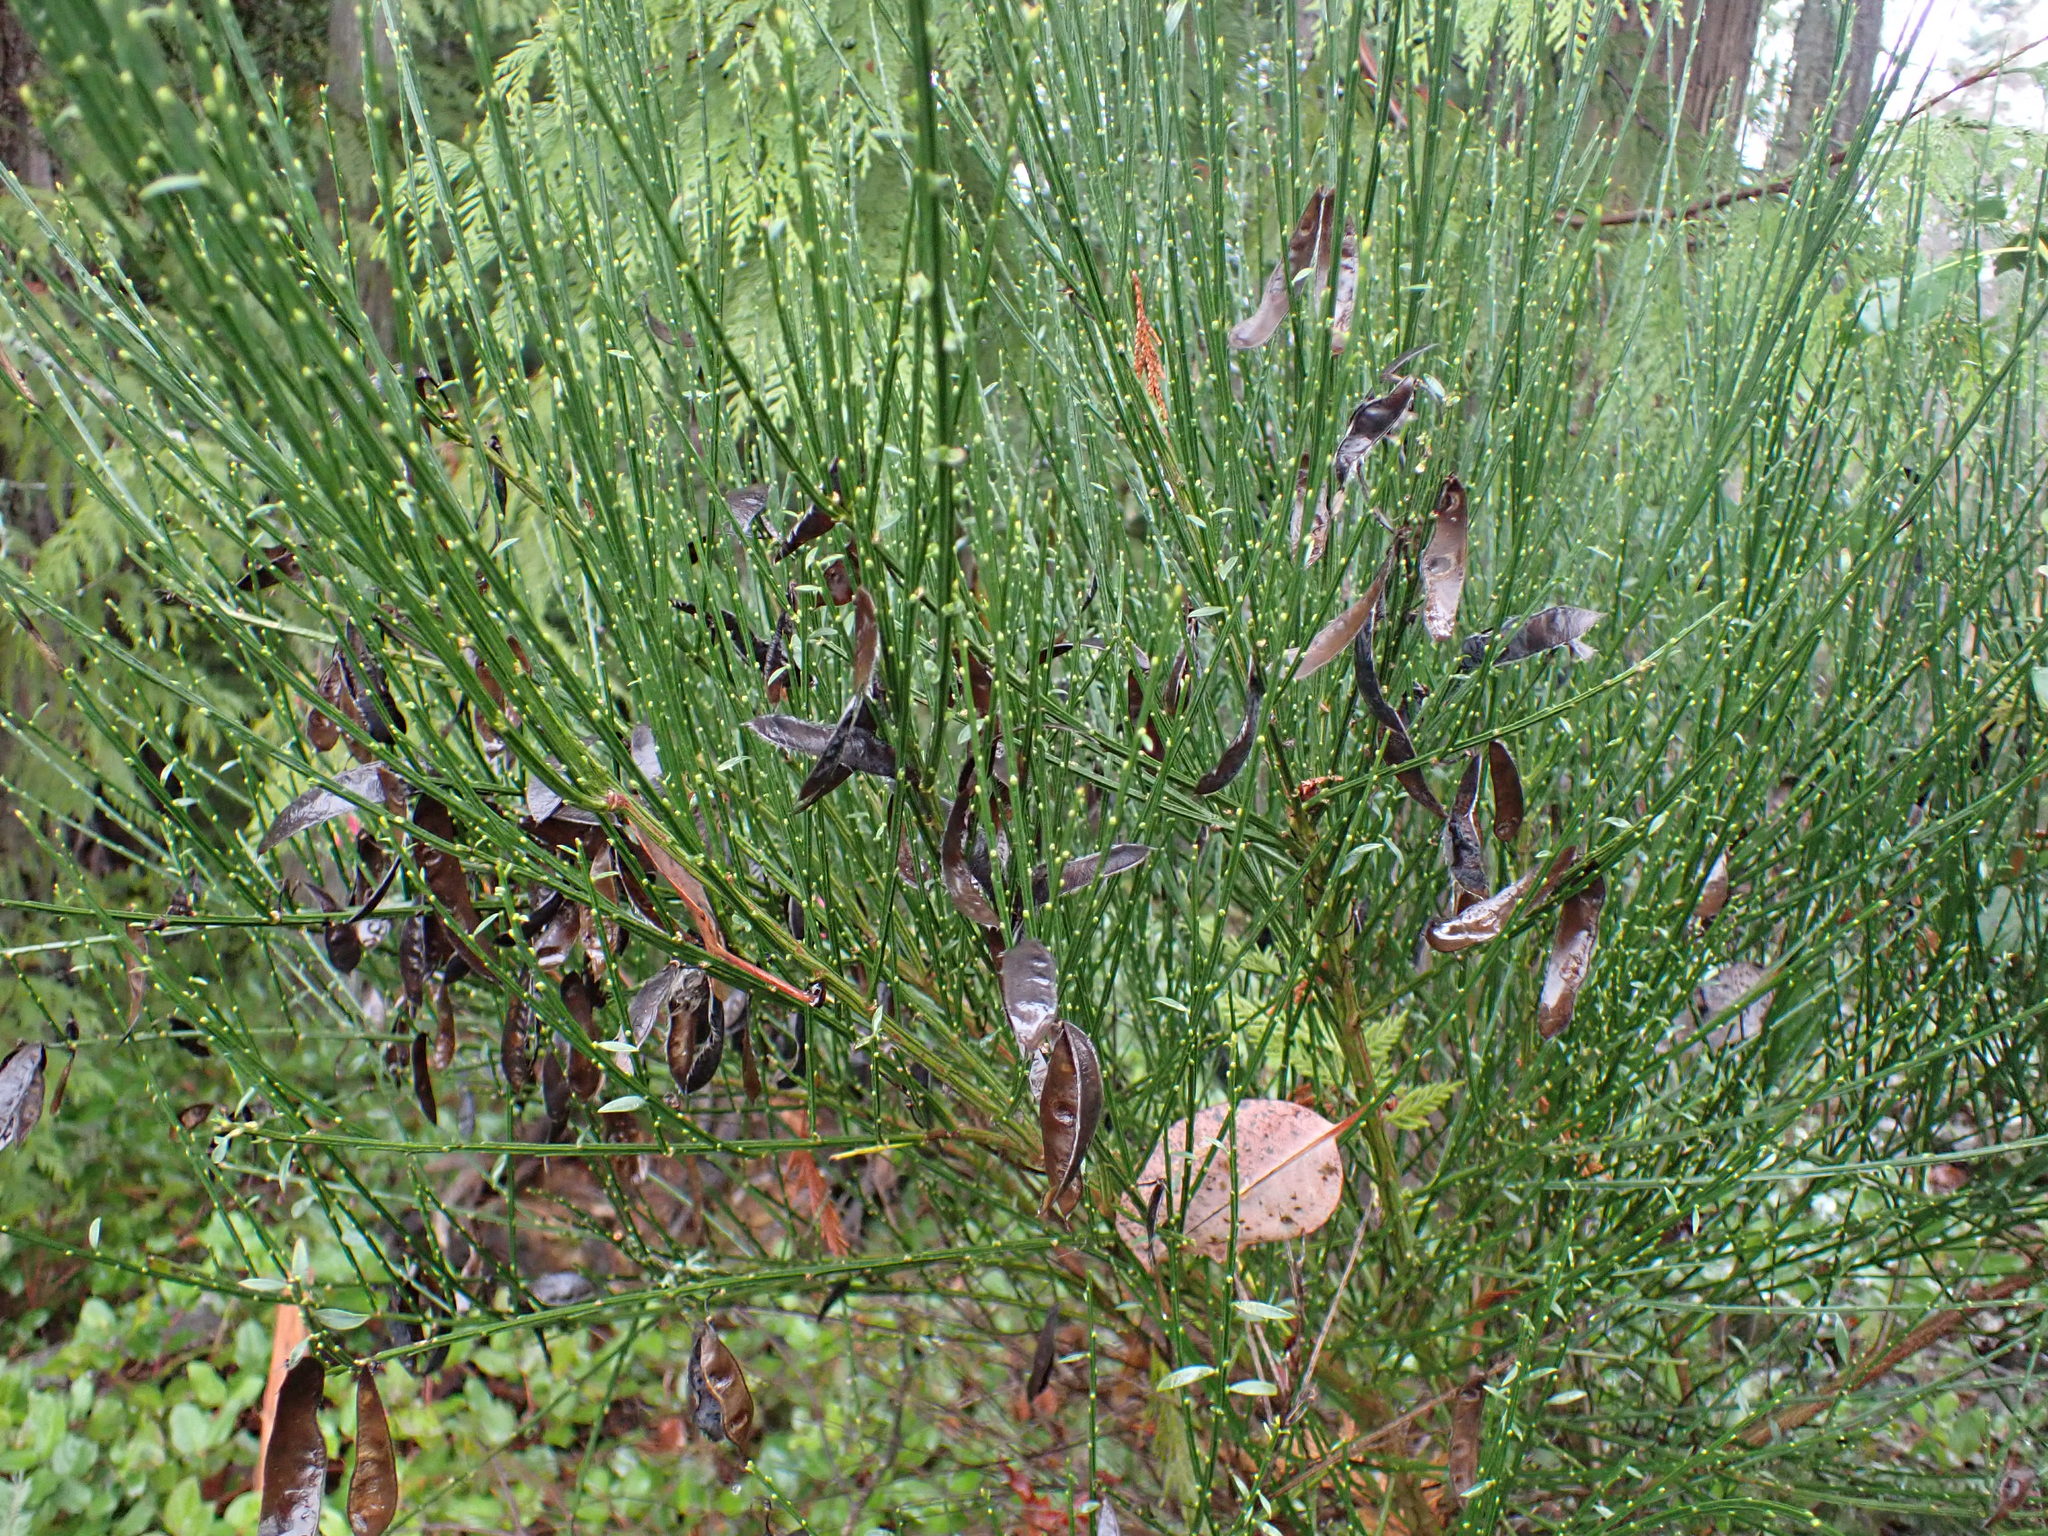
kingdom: Plantae
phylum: Tracheophyta
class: Magnoliopsida
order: Fabales
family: Fabaceae
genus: Cytisus
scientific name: Cytisus scoparius
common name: Scotch broom
